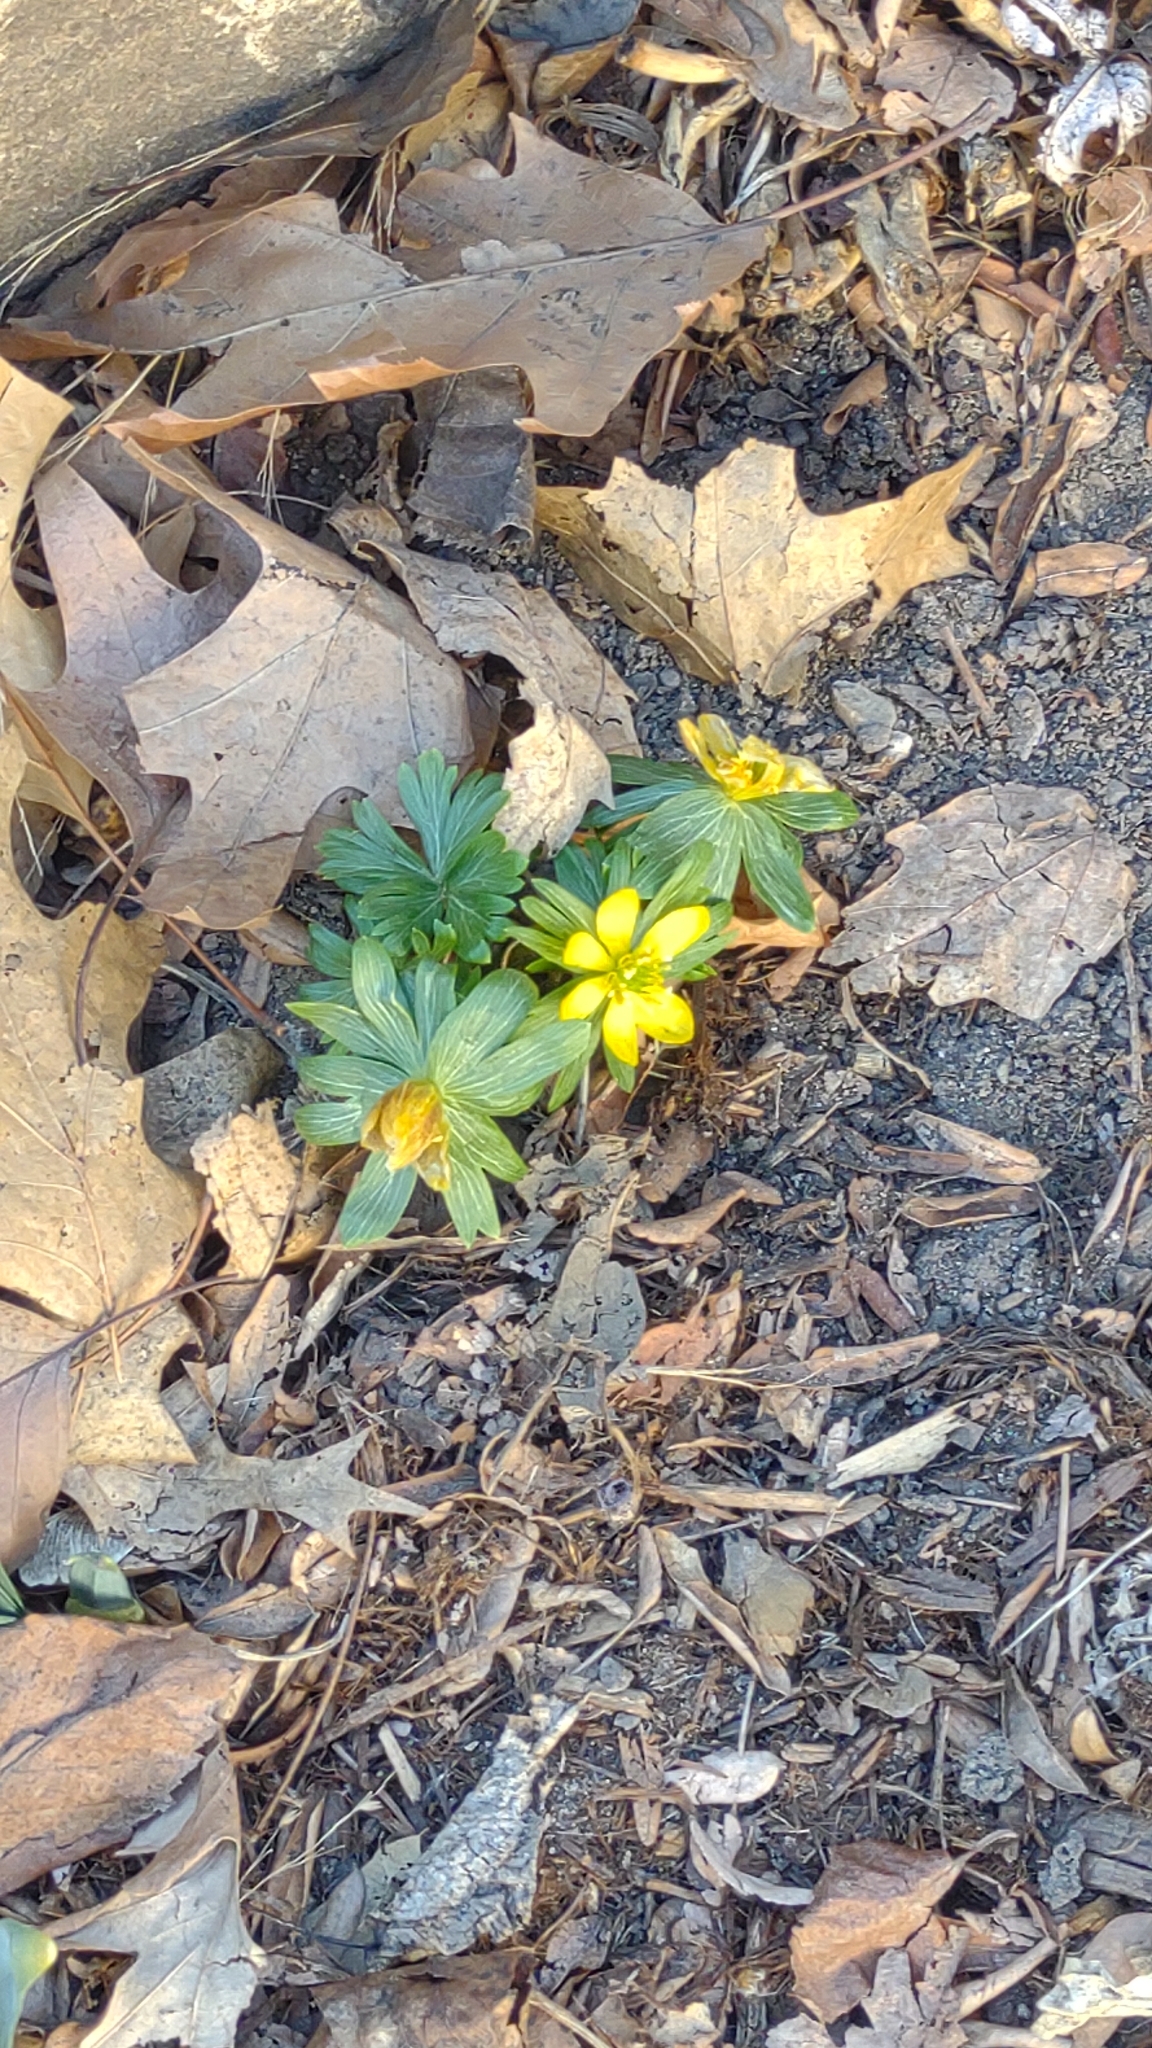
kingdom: Plantae
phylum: Tracheophyta
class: Magnoliopsida
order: Ranunculales
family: Ranunculaceae
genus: Eranthis
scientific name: Eranthis hyemalis
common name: Winter aconite
